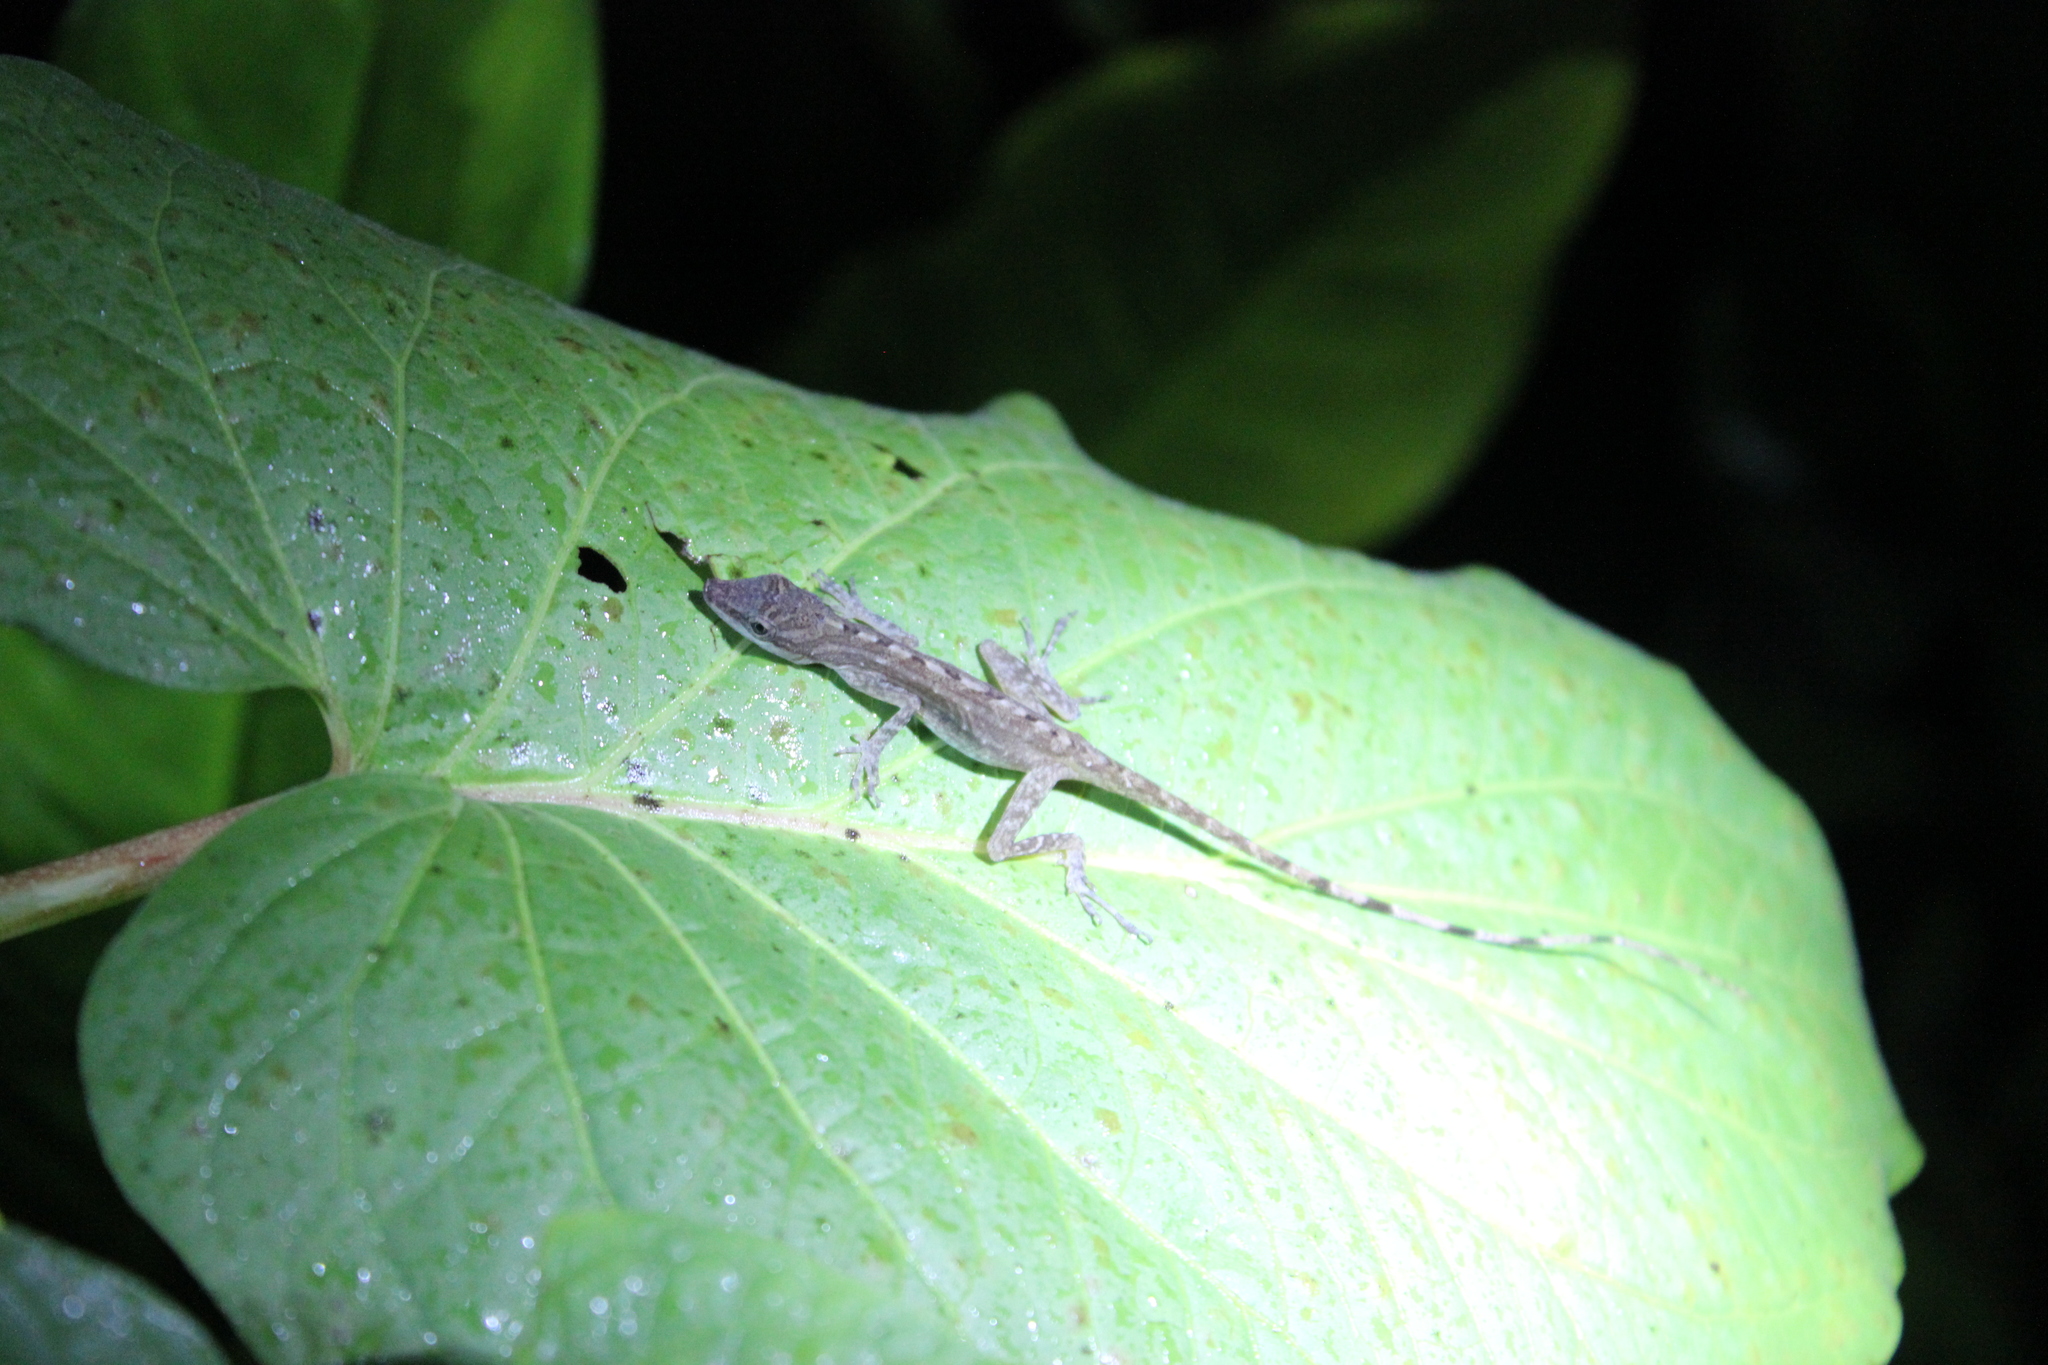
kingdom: Animalia
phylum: Chordata
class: Squamata
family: Dactyloidae
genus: Anolis
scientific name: Anolis limifrons
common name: Border anole
